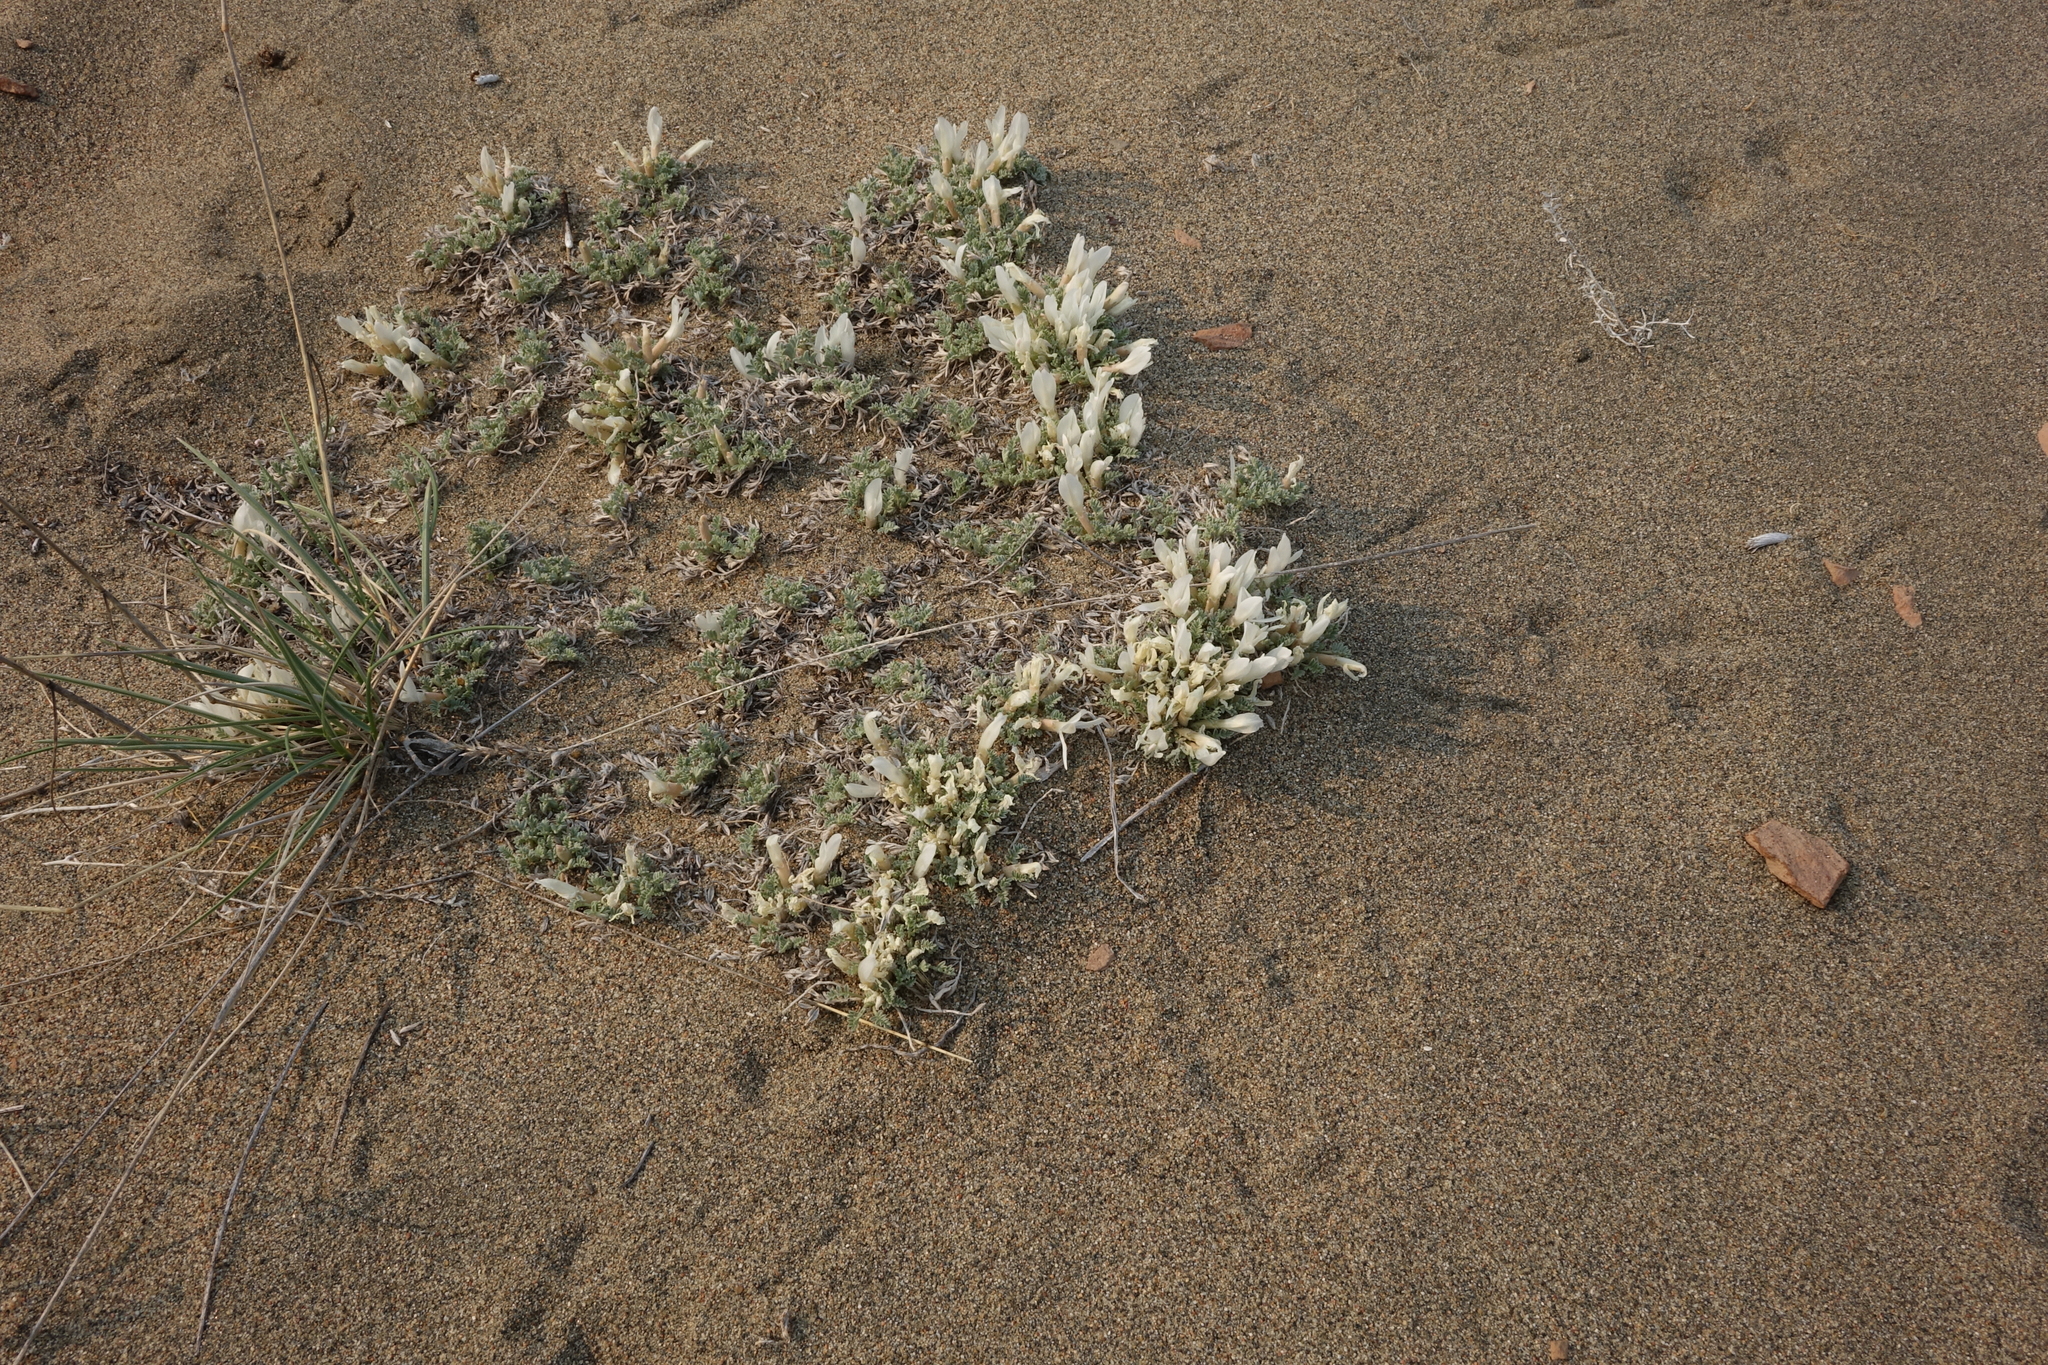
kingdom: Plantae
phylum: Tracheophyta
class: Magnoliopsida
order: Fabales
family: Fabaceae
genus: Astragalus
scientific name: Astragalus teskhemicus
